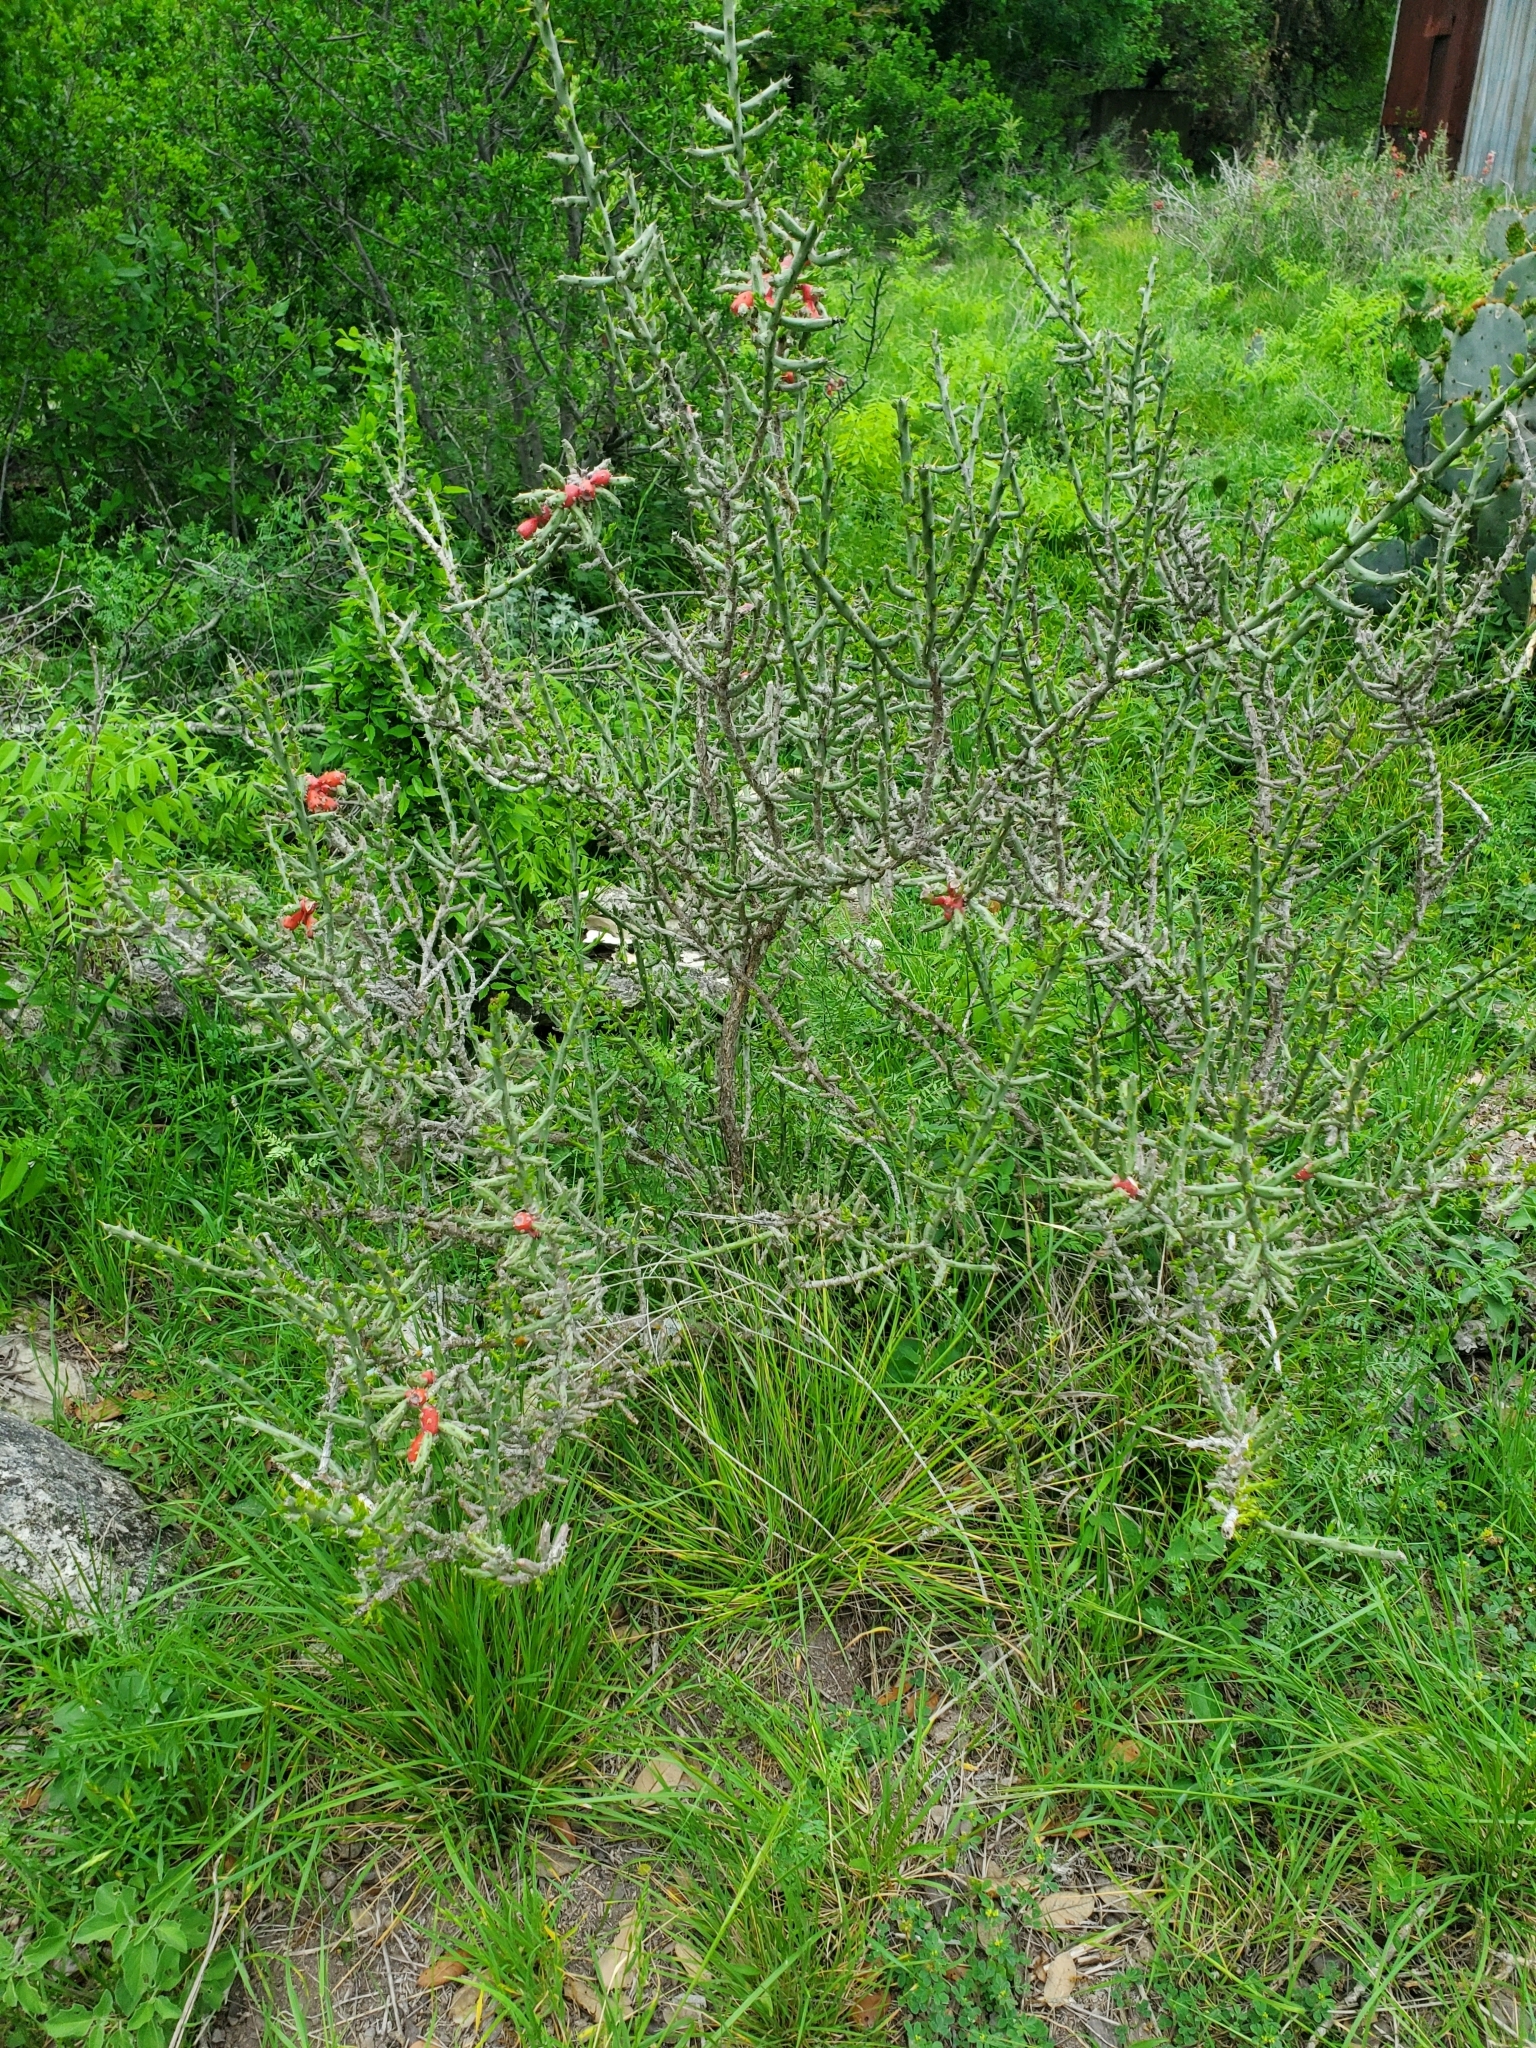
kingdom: Plantae
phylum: Tracheophyta
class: Magnoliopsida
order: Caryophyllales
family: Cactaceae
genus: Cylindropuntia
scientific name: Cylindropuntia leptocaulis
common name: Christmas cactus
